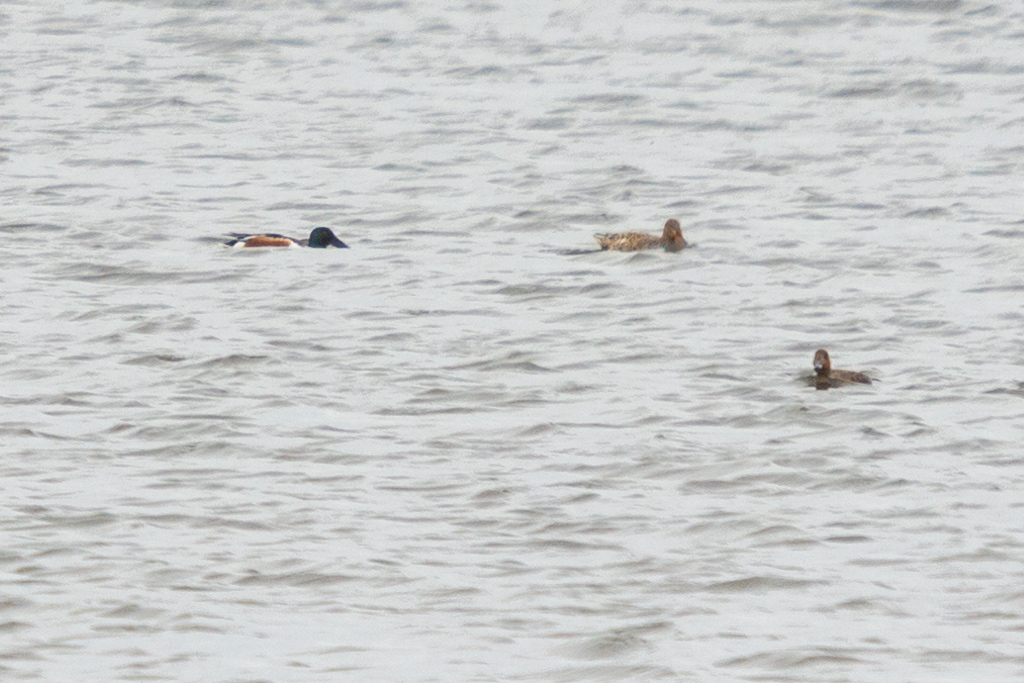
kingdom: Animalia
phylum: Chordata
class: Aves
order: Anseriformes
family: Anatidae
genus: Spatula
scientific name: Spatula clypeata
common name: Northern shoveler
